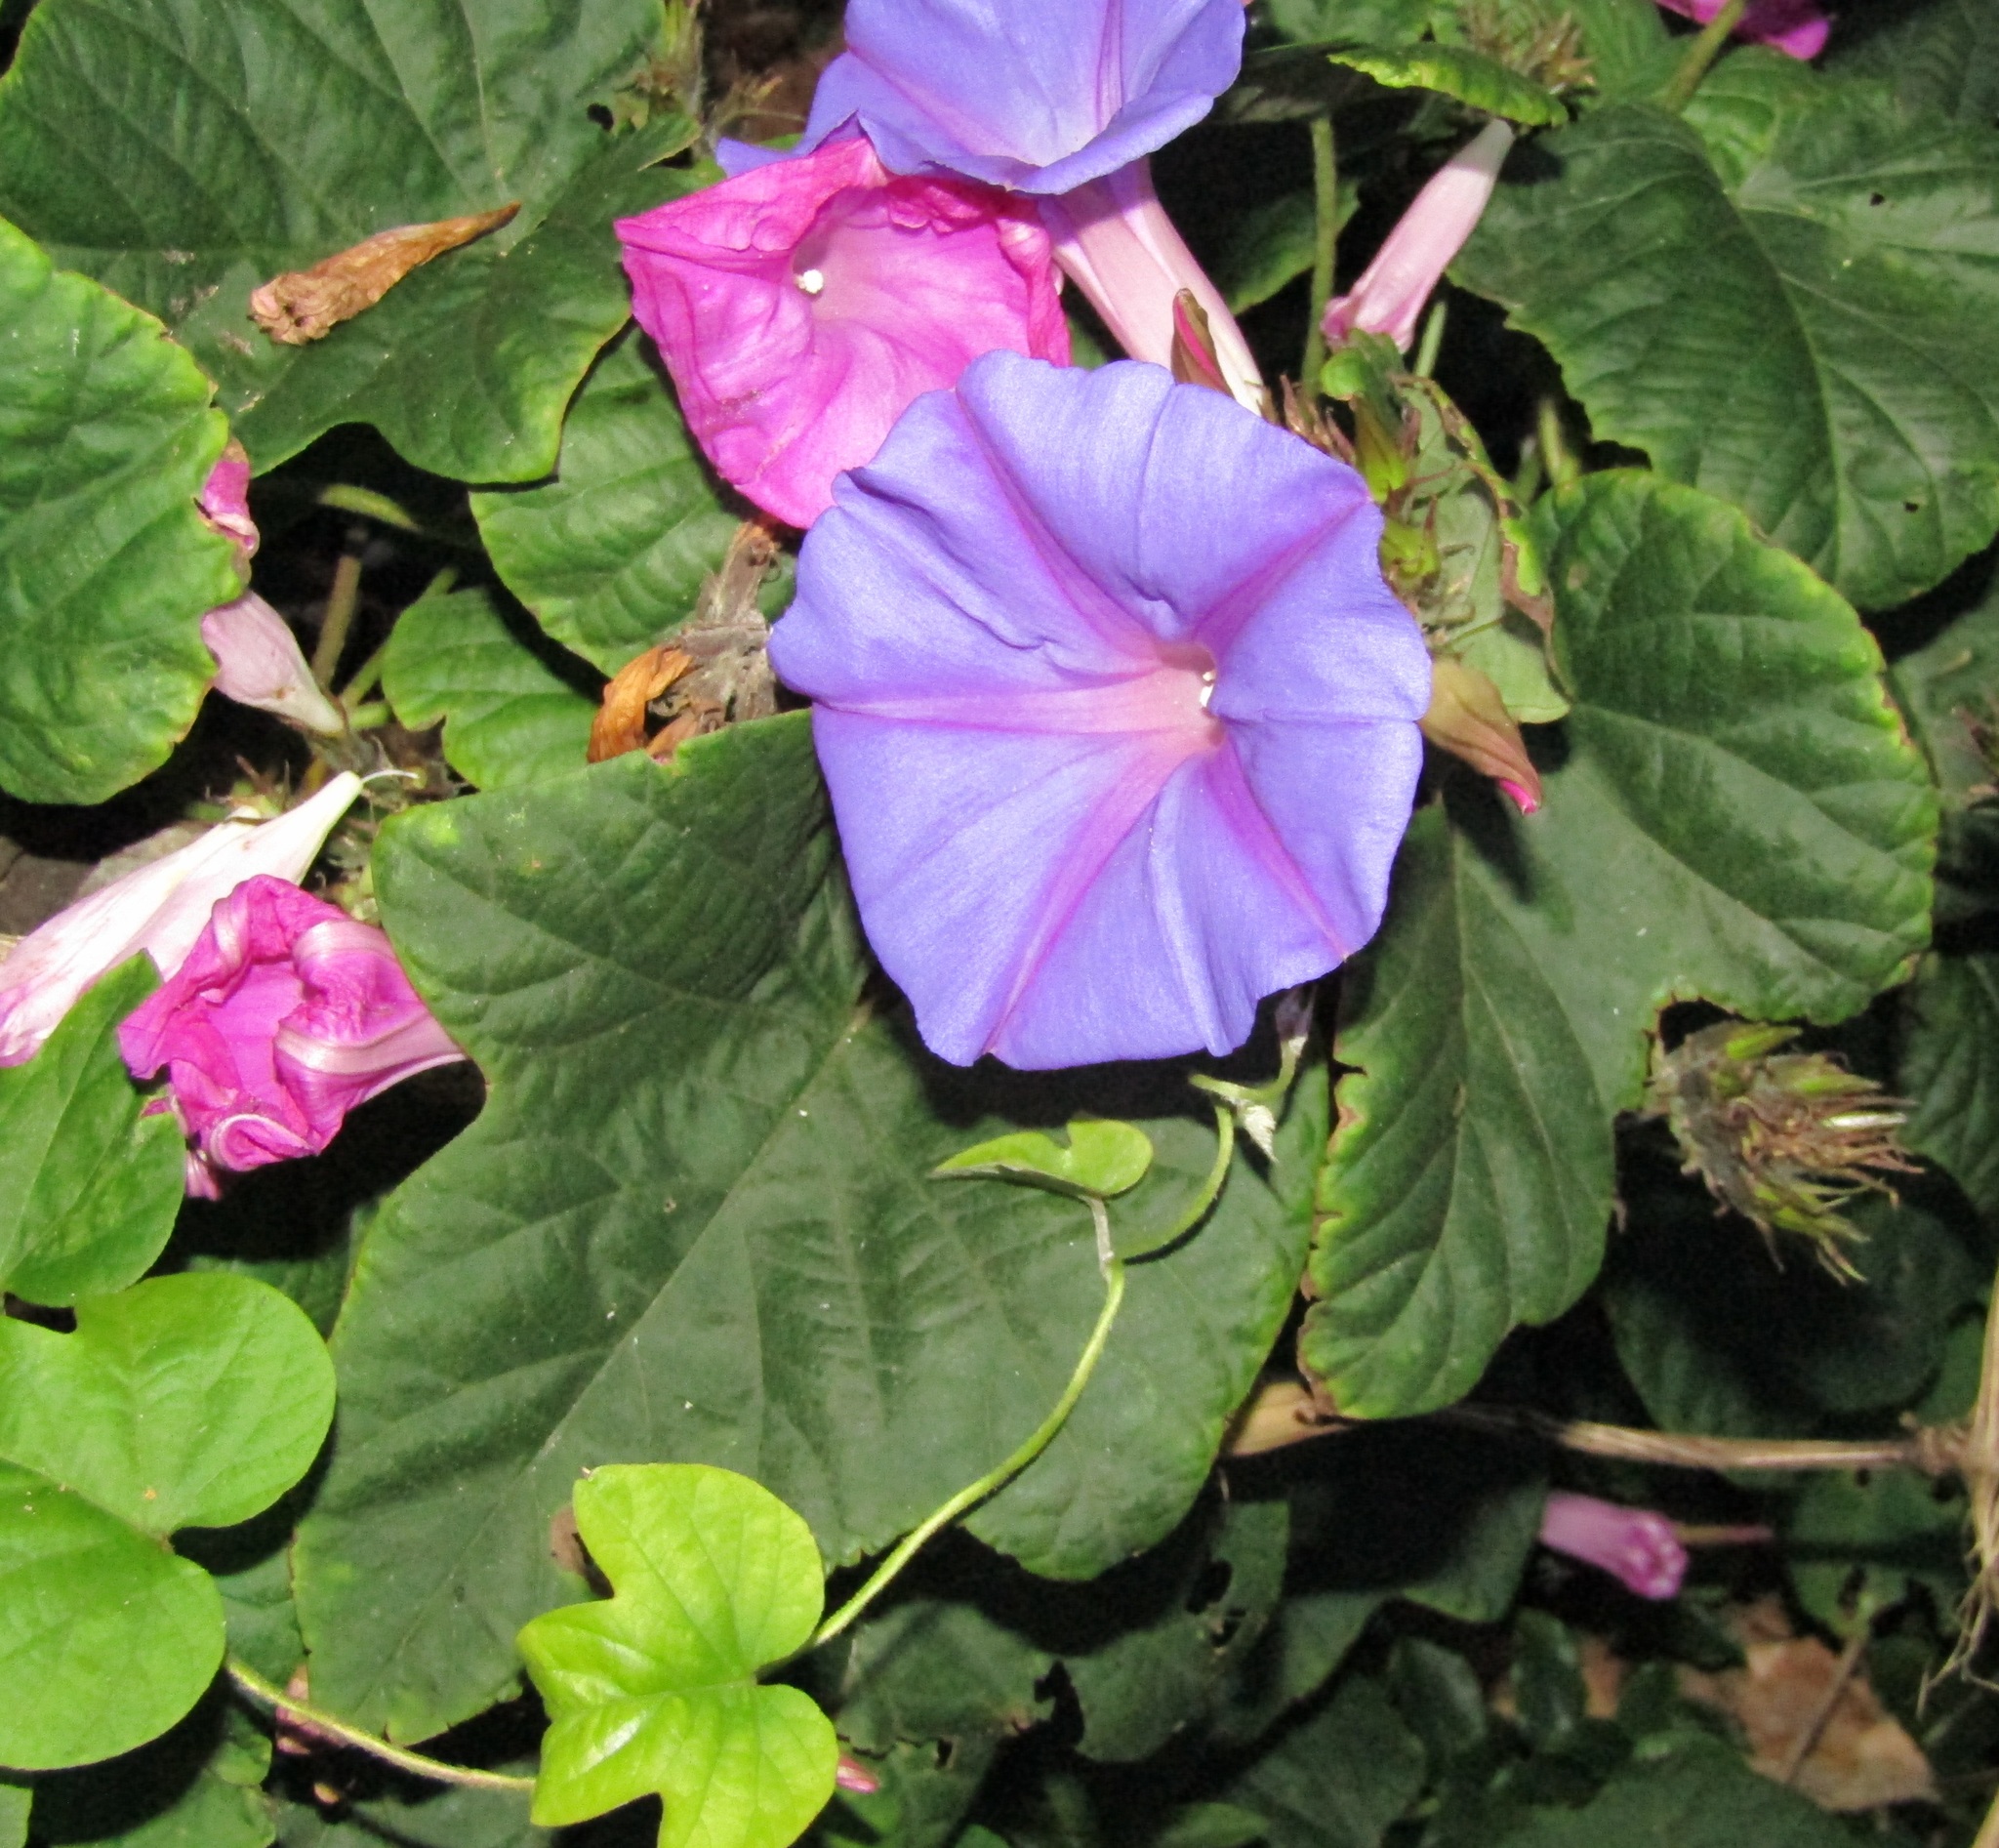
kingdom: Plantae
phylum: Tracheophyta
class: Magnoliopsida
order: Solanales
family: Convolvulaceae
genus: Ipomoea
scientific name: Ipomoea indica
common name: Blue dawnflower
